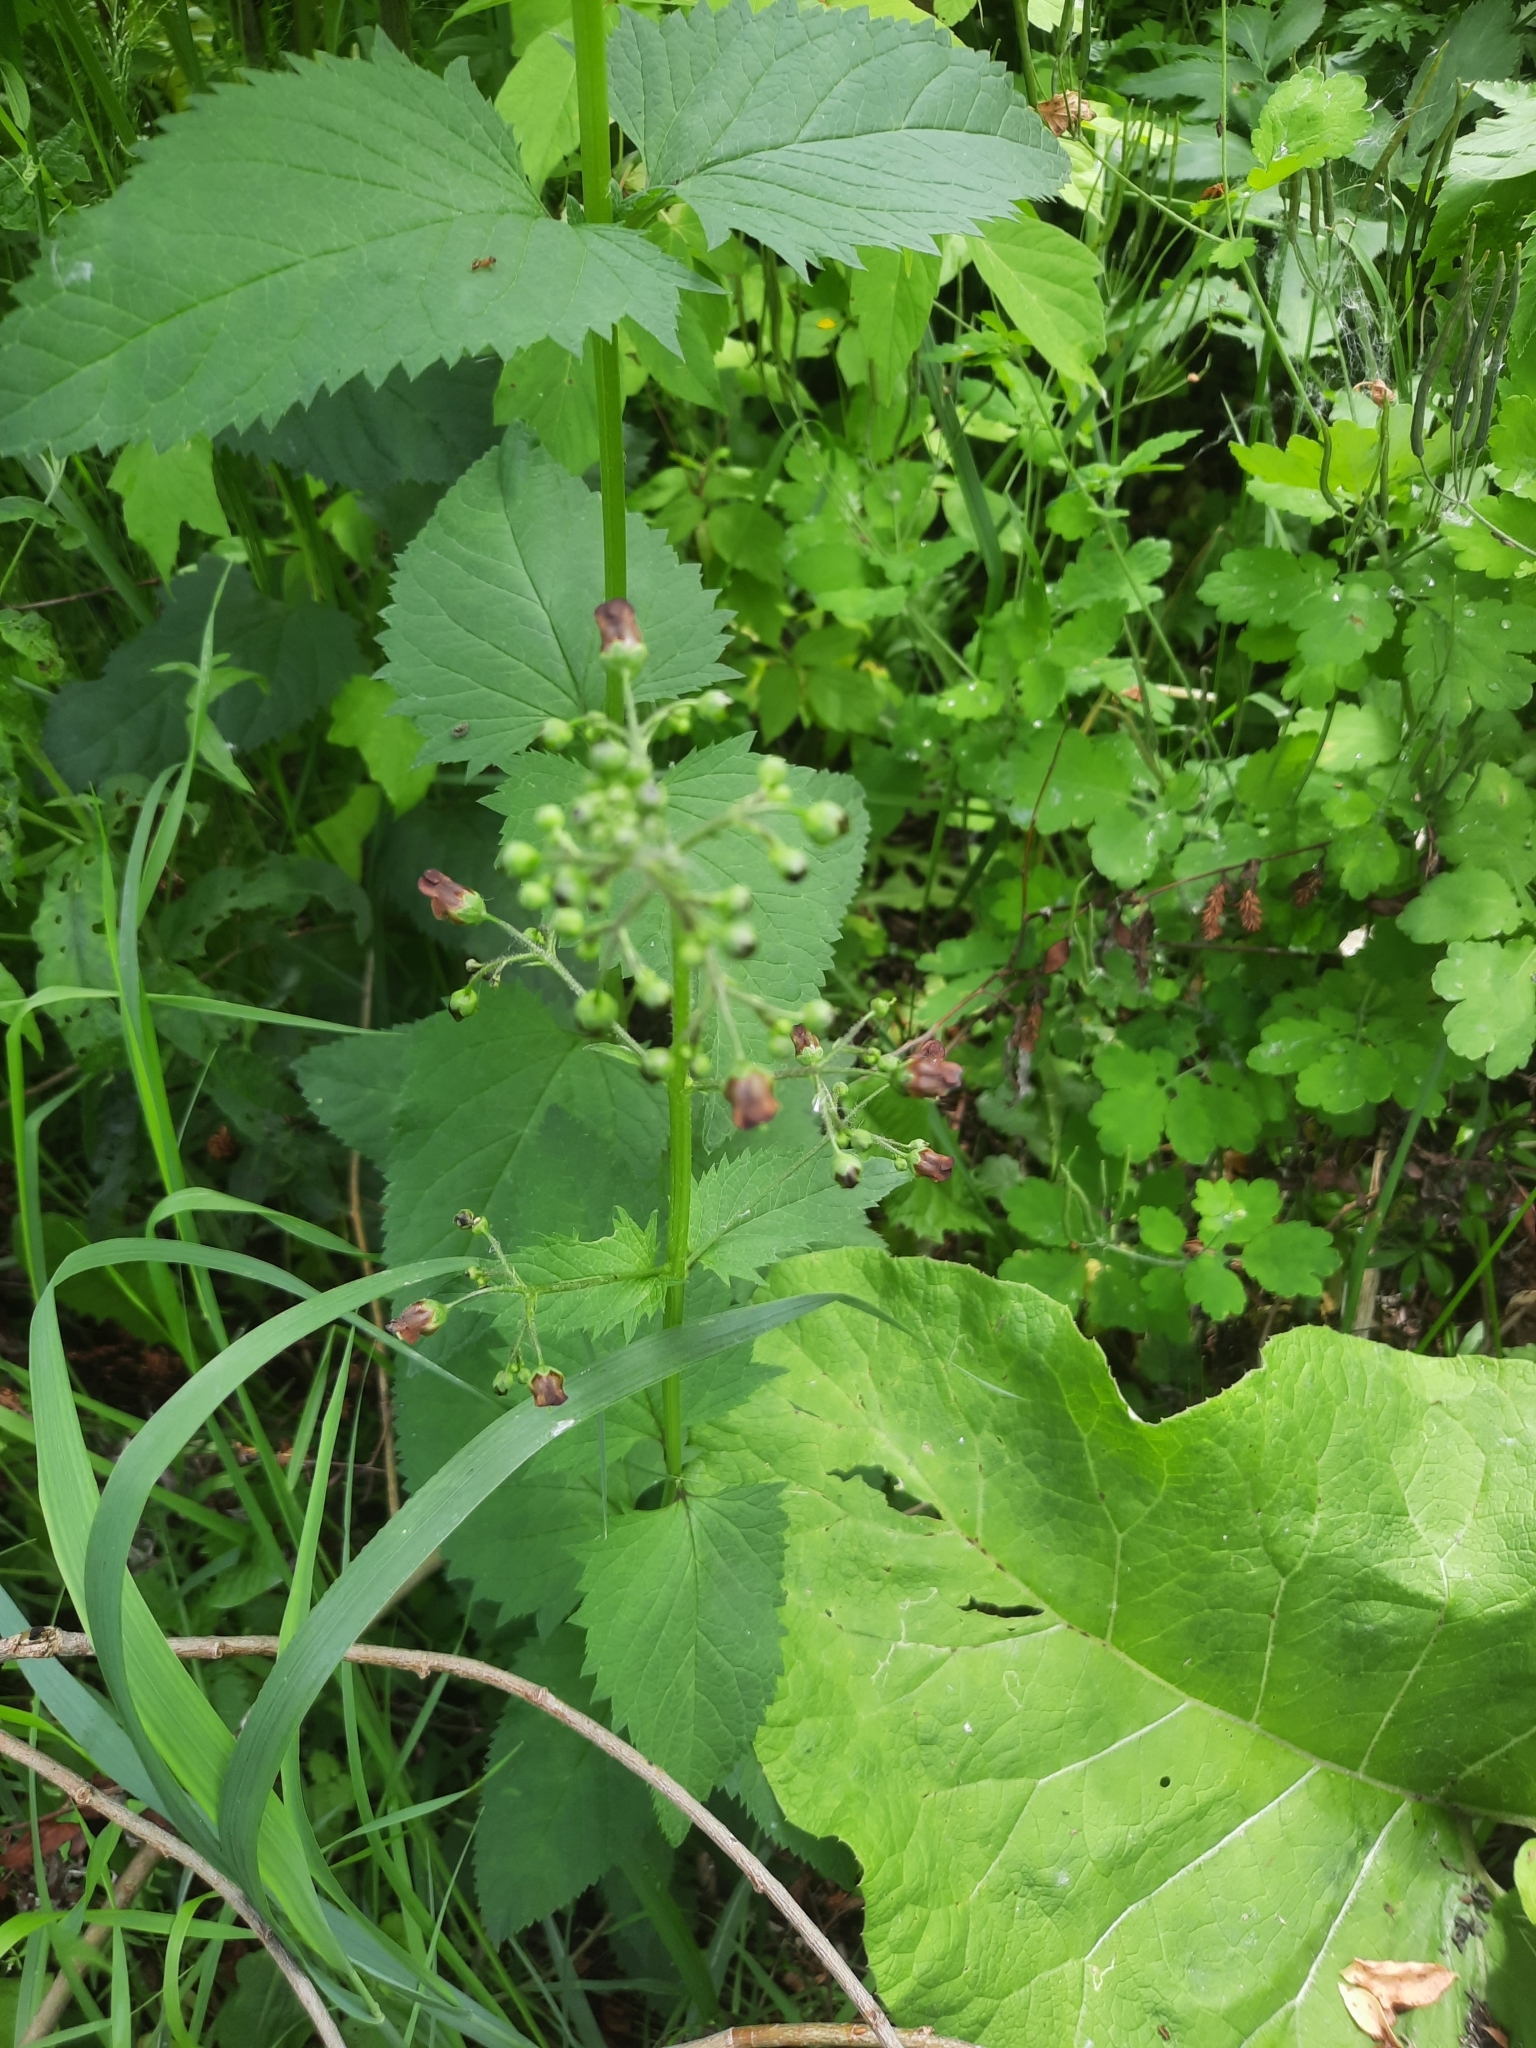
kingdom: Plantae
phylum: Tracheophyta
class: Magnoliopsida
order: Lamiales
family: Scrophulariaceae
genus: Scrophularia
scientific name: Scrophularia nodosa
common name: Common figwort
